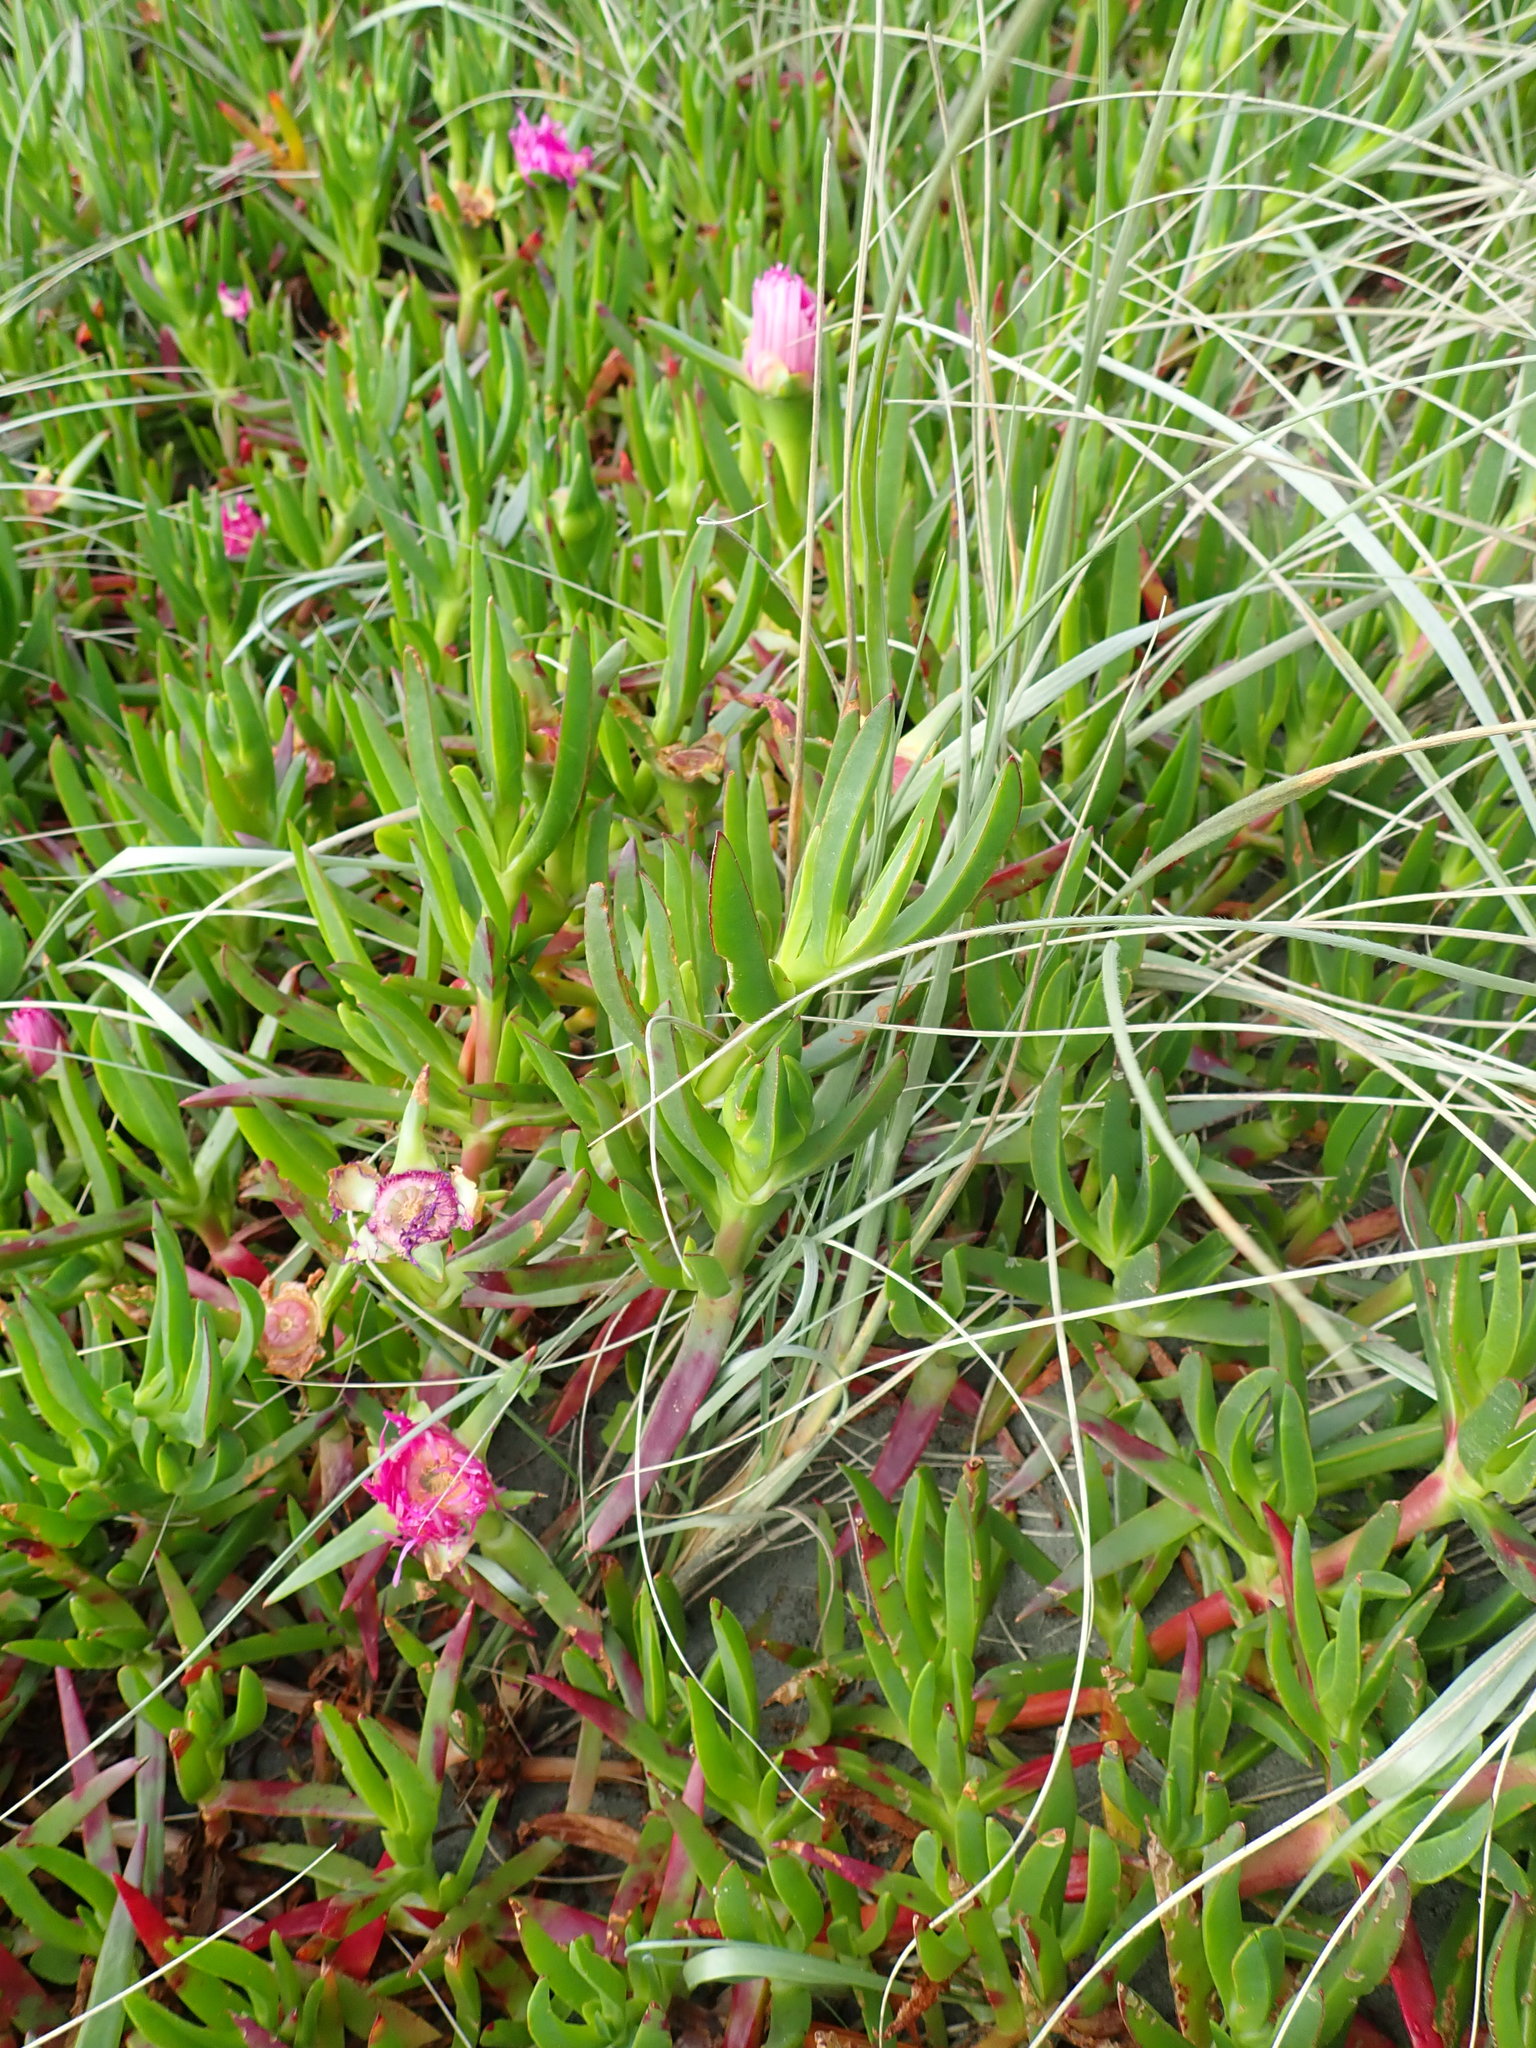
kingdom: Plantae
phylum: Tracheophyta
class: Magnoliopsida
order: Caryophyllales
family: Aizoaceae
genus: Carpobrotus
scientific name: Carpobrotus chilensis
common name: Sea fig
